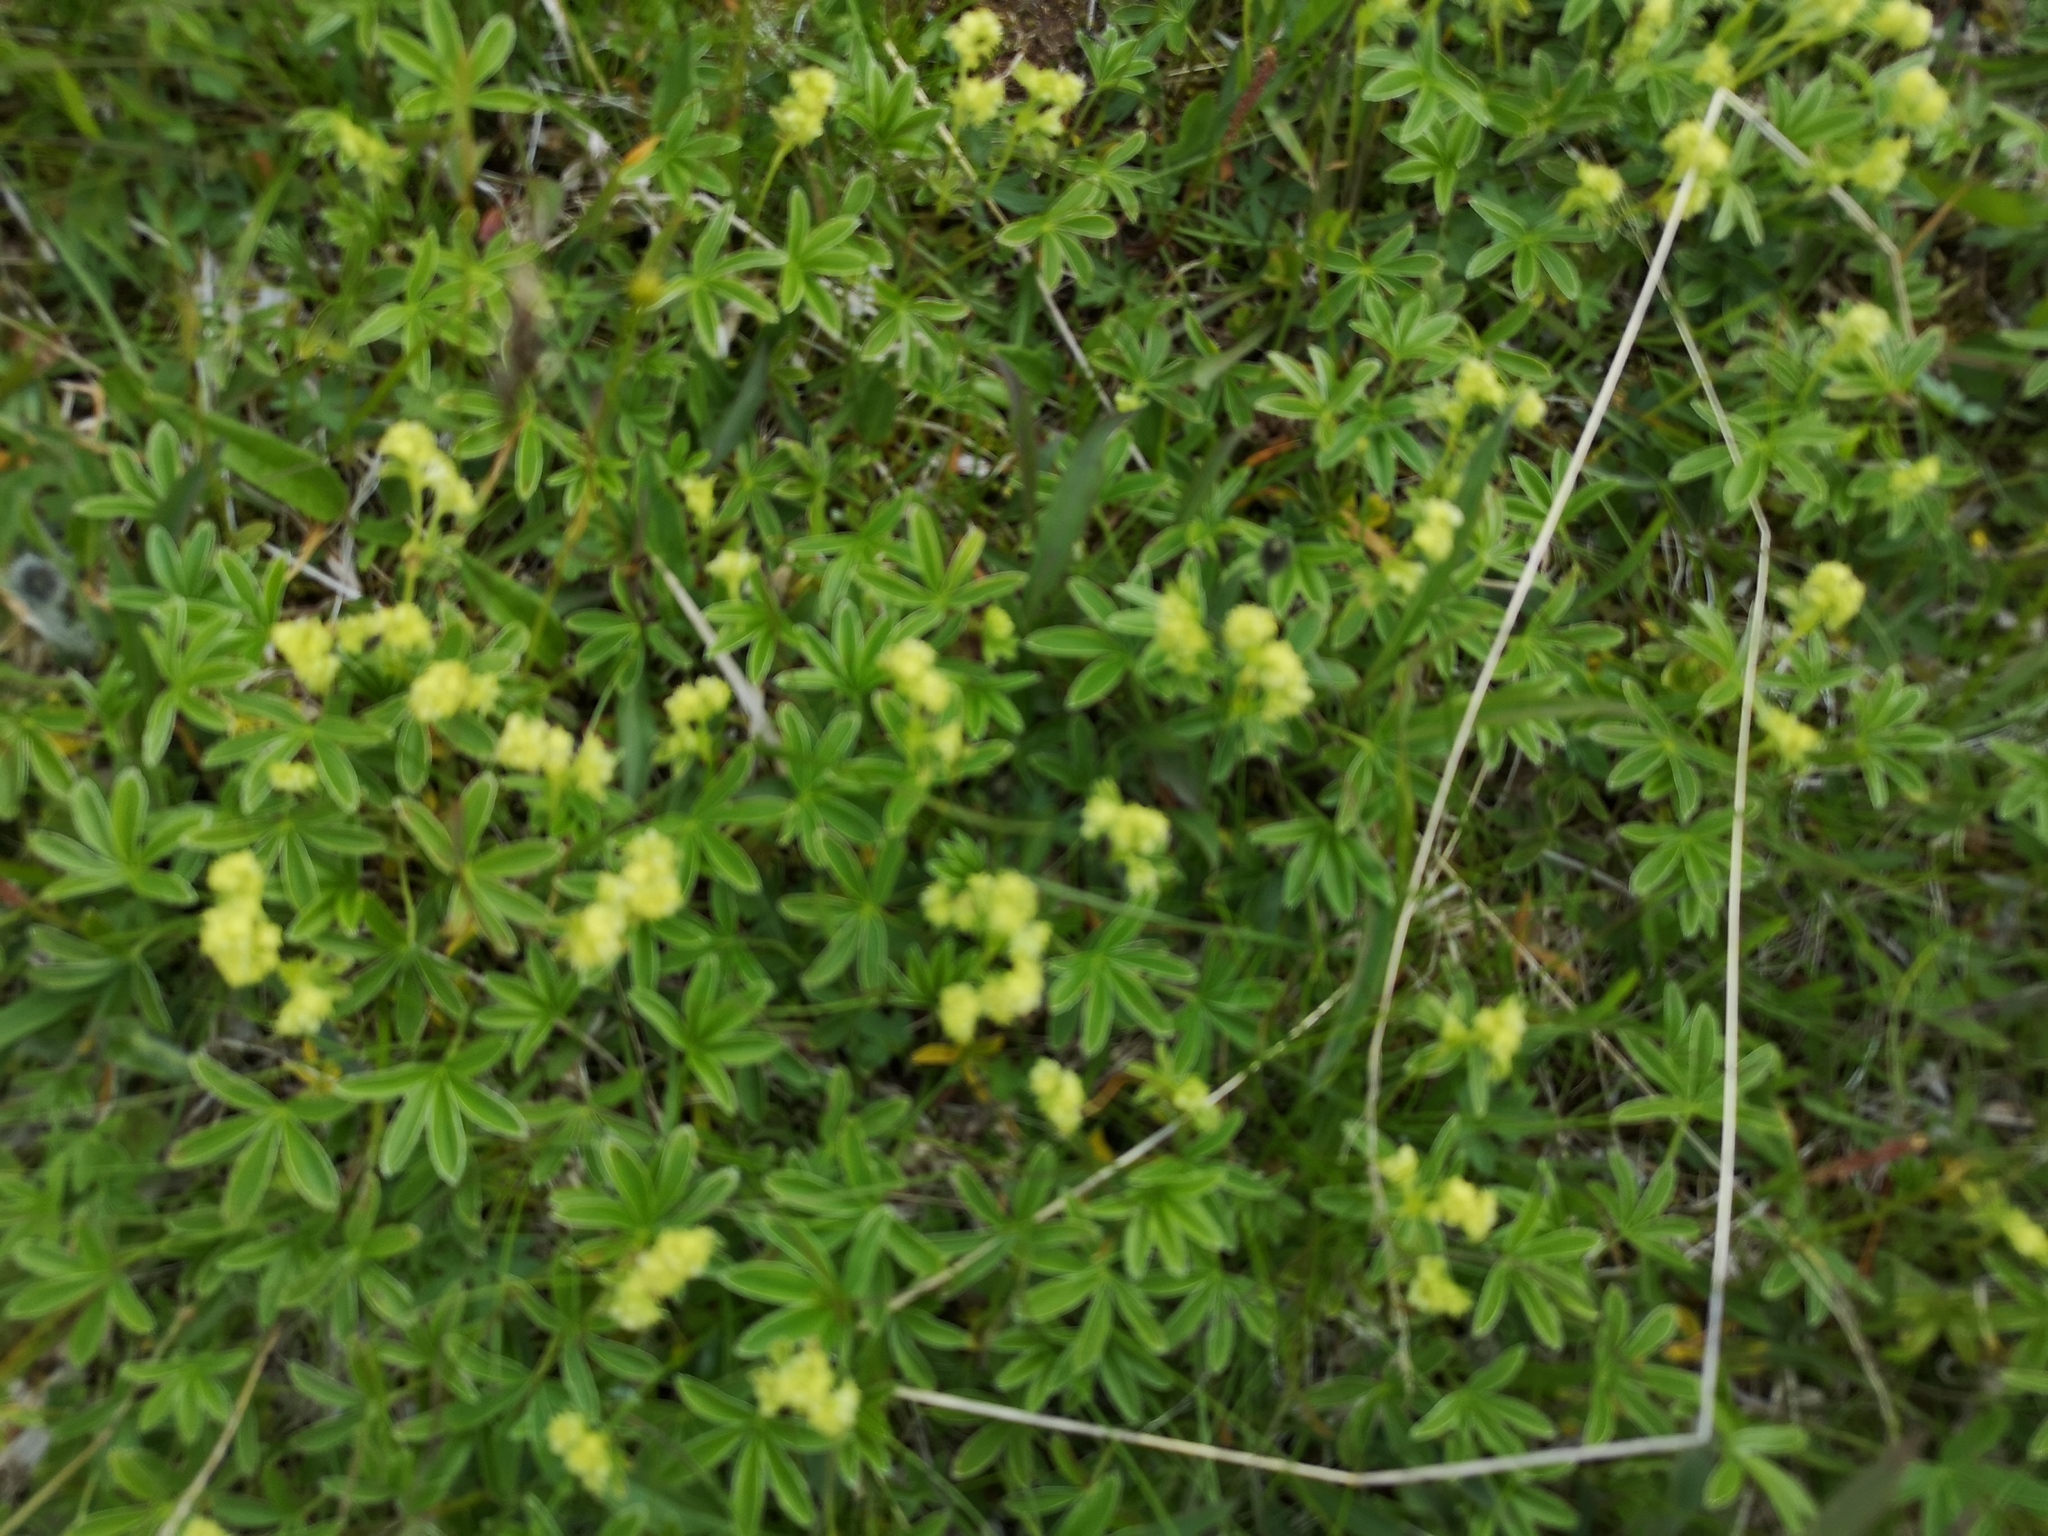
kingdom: Plantae
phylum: Tracheophyta
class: Magnoliopsida
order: Rosales
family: Rosaceae
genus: Alchemilla
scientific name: Alchemilla alpina
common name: Alpine lady's-mantle
